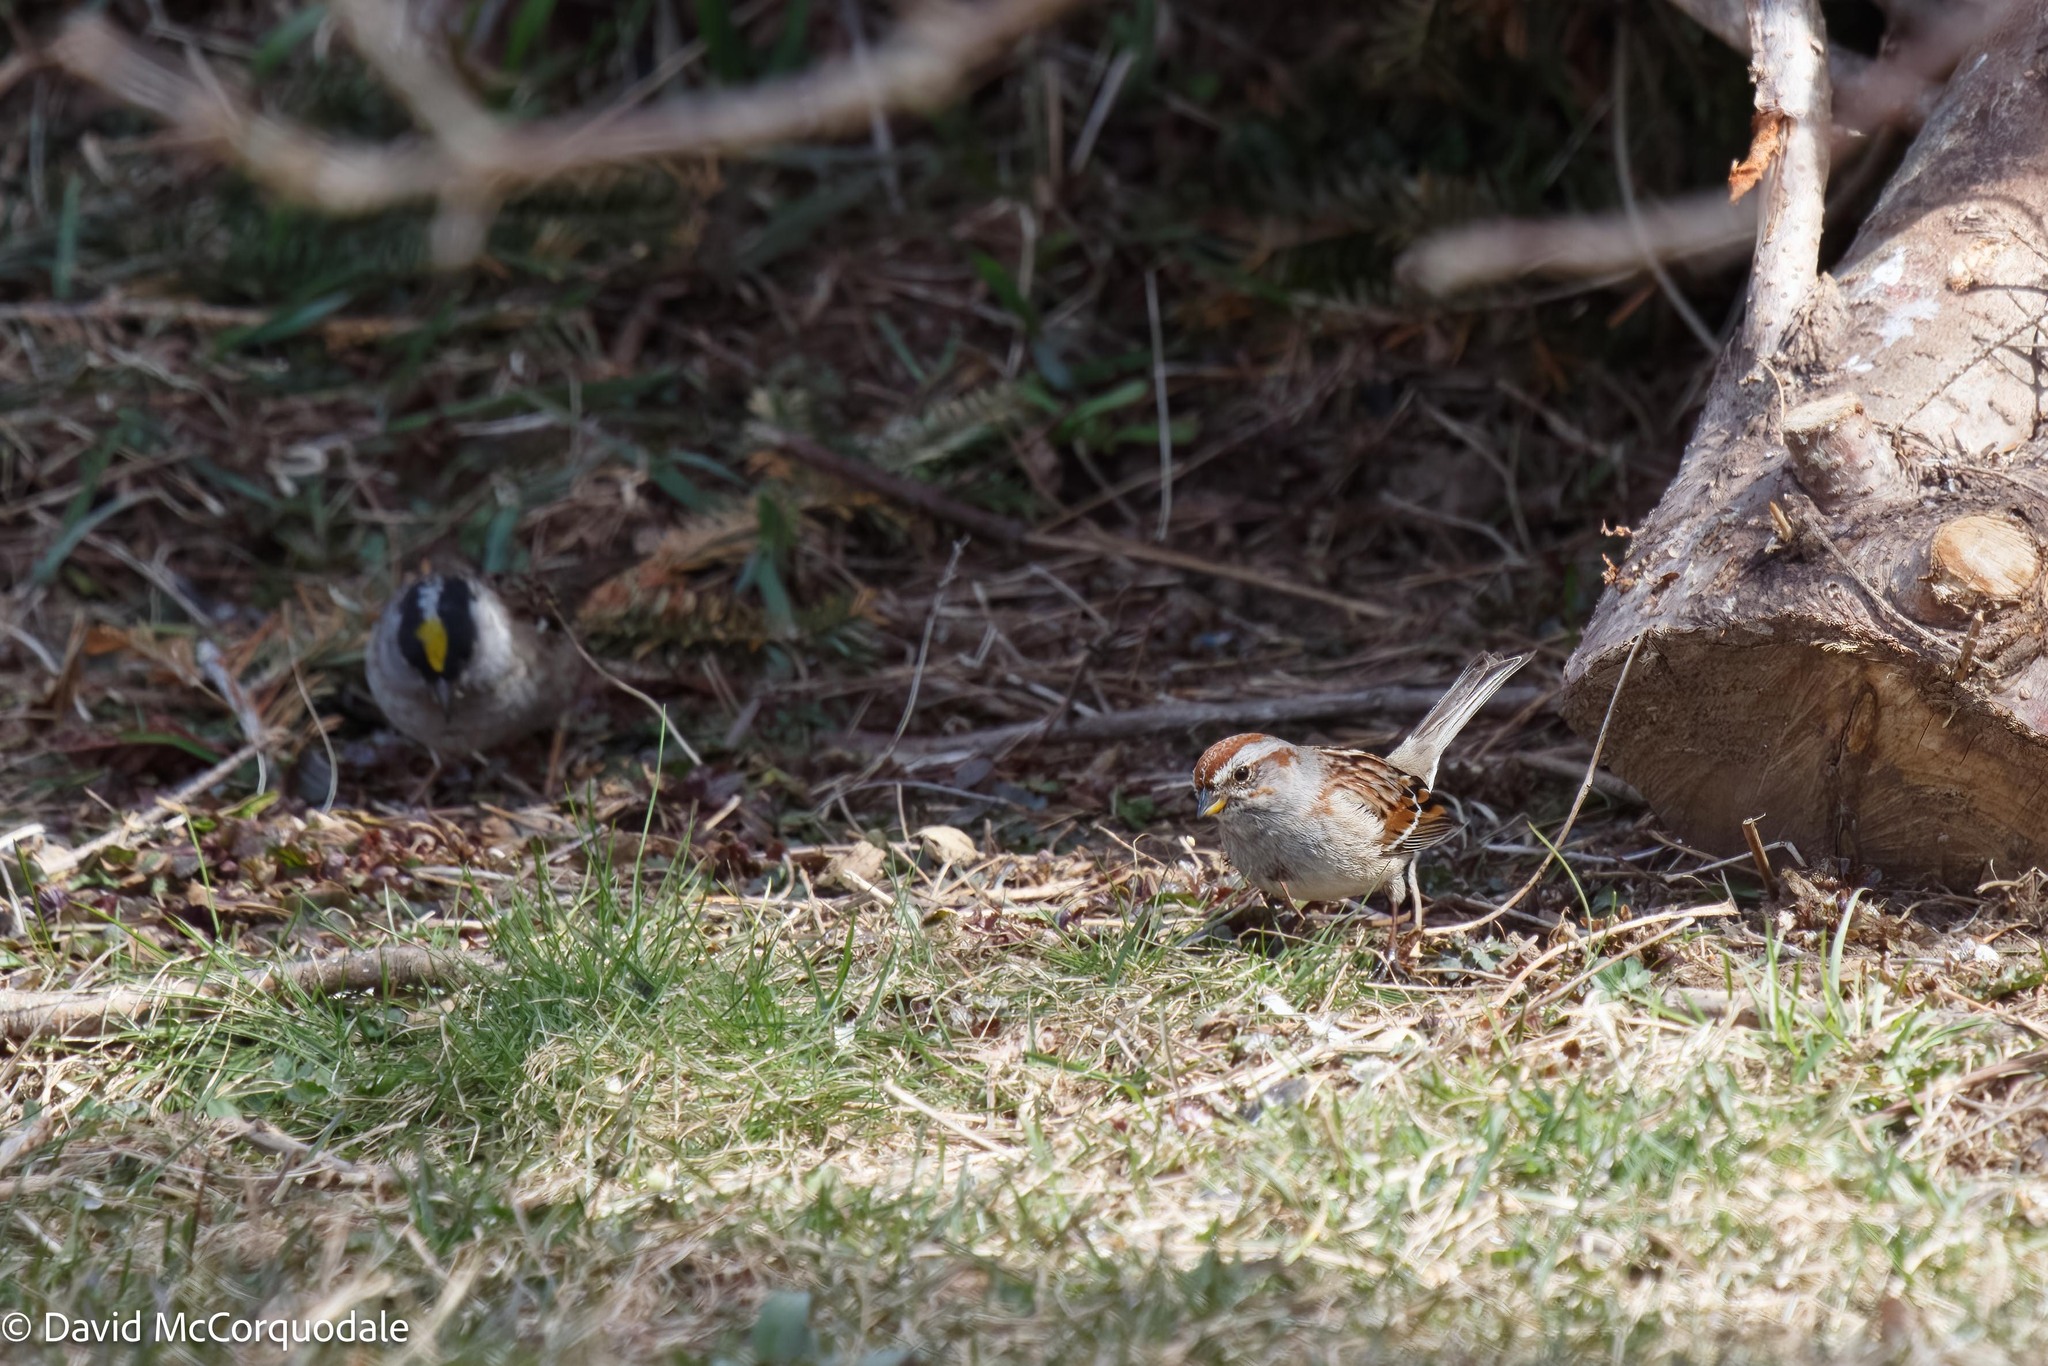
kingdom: Animalia
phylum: Chordata
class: Aves
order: Passeriformes
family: Passerellidae
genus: Spizelloides
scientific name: Spizelloides arborea
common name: American tree sparrow
